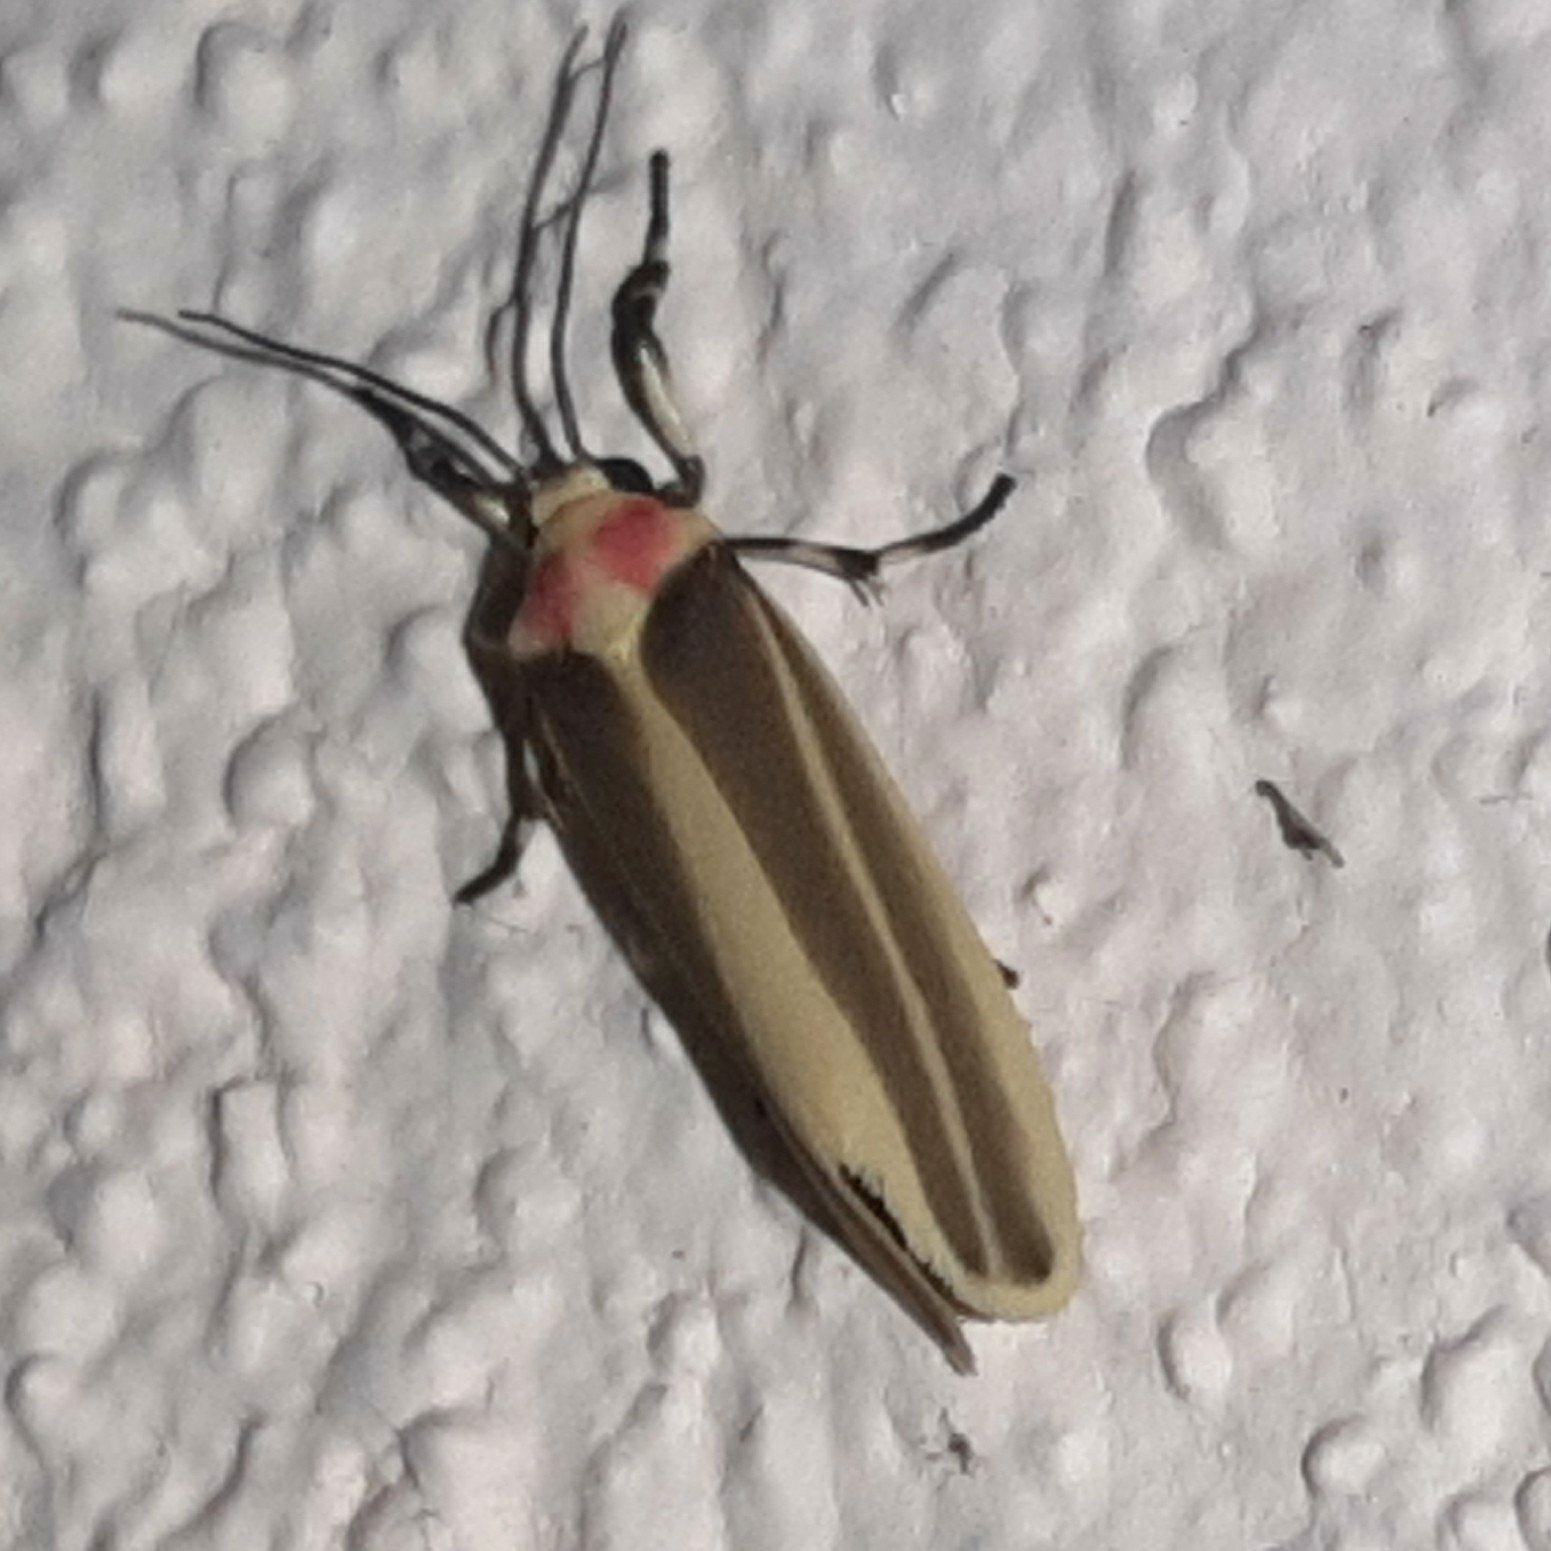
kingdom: Animalia
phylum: Arthropoda
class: Insecta
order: Lepidoptera
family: Erebidae
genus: Rhabdatomis
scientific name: Rhabdatomis laudamia
